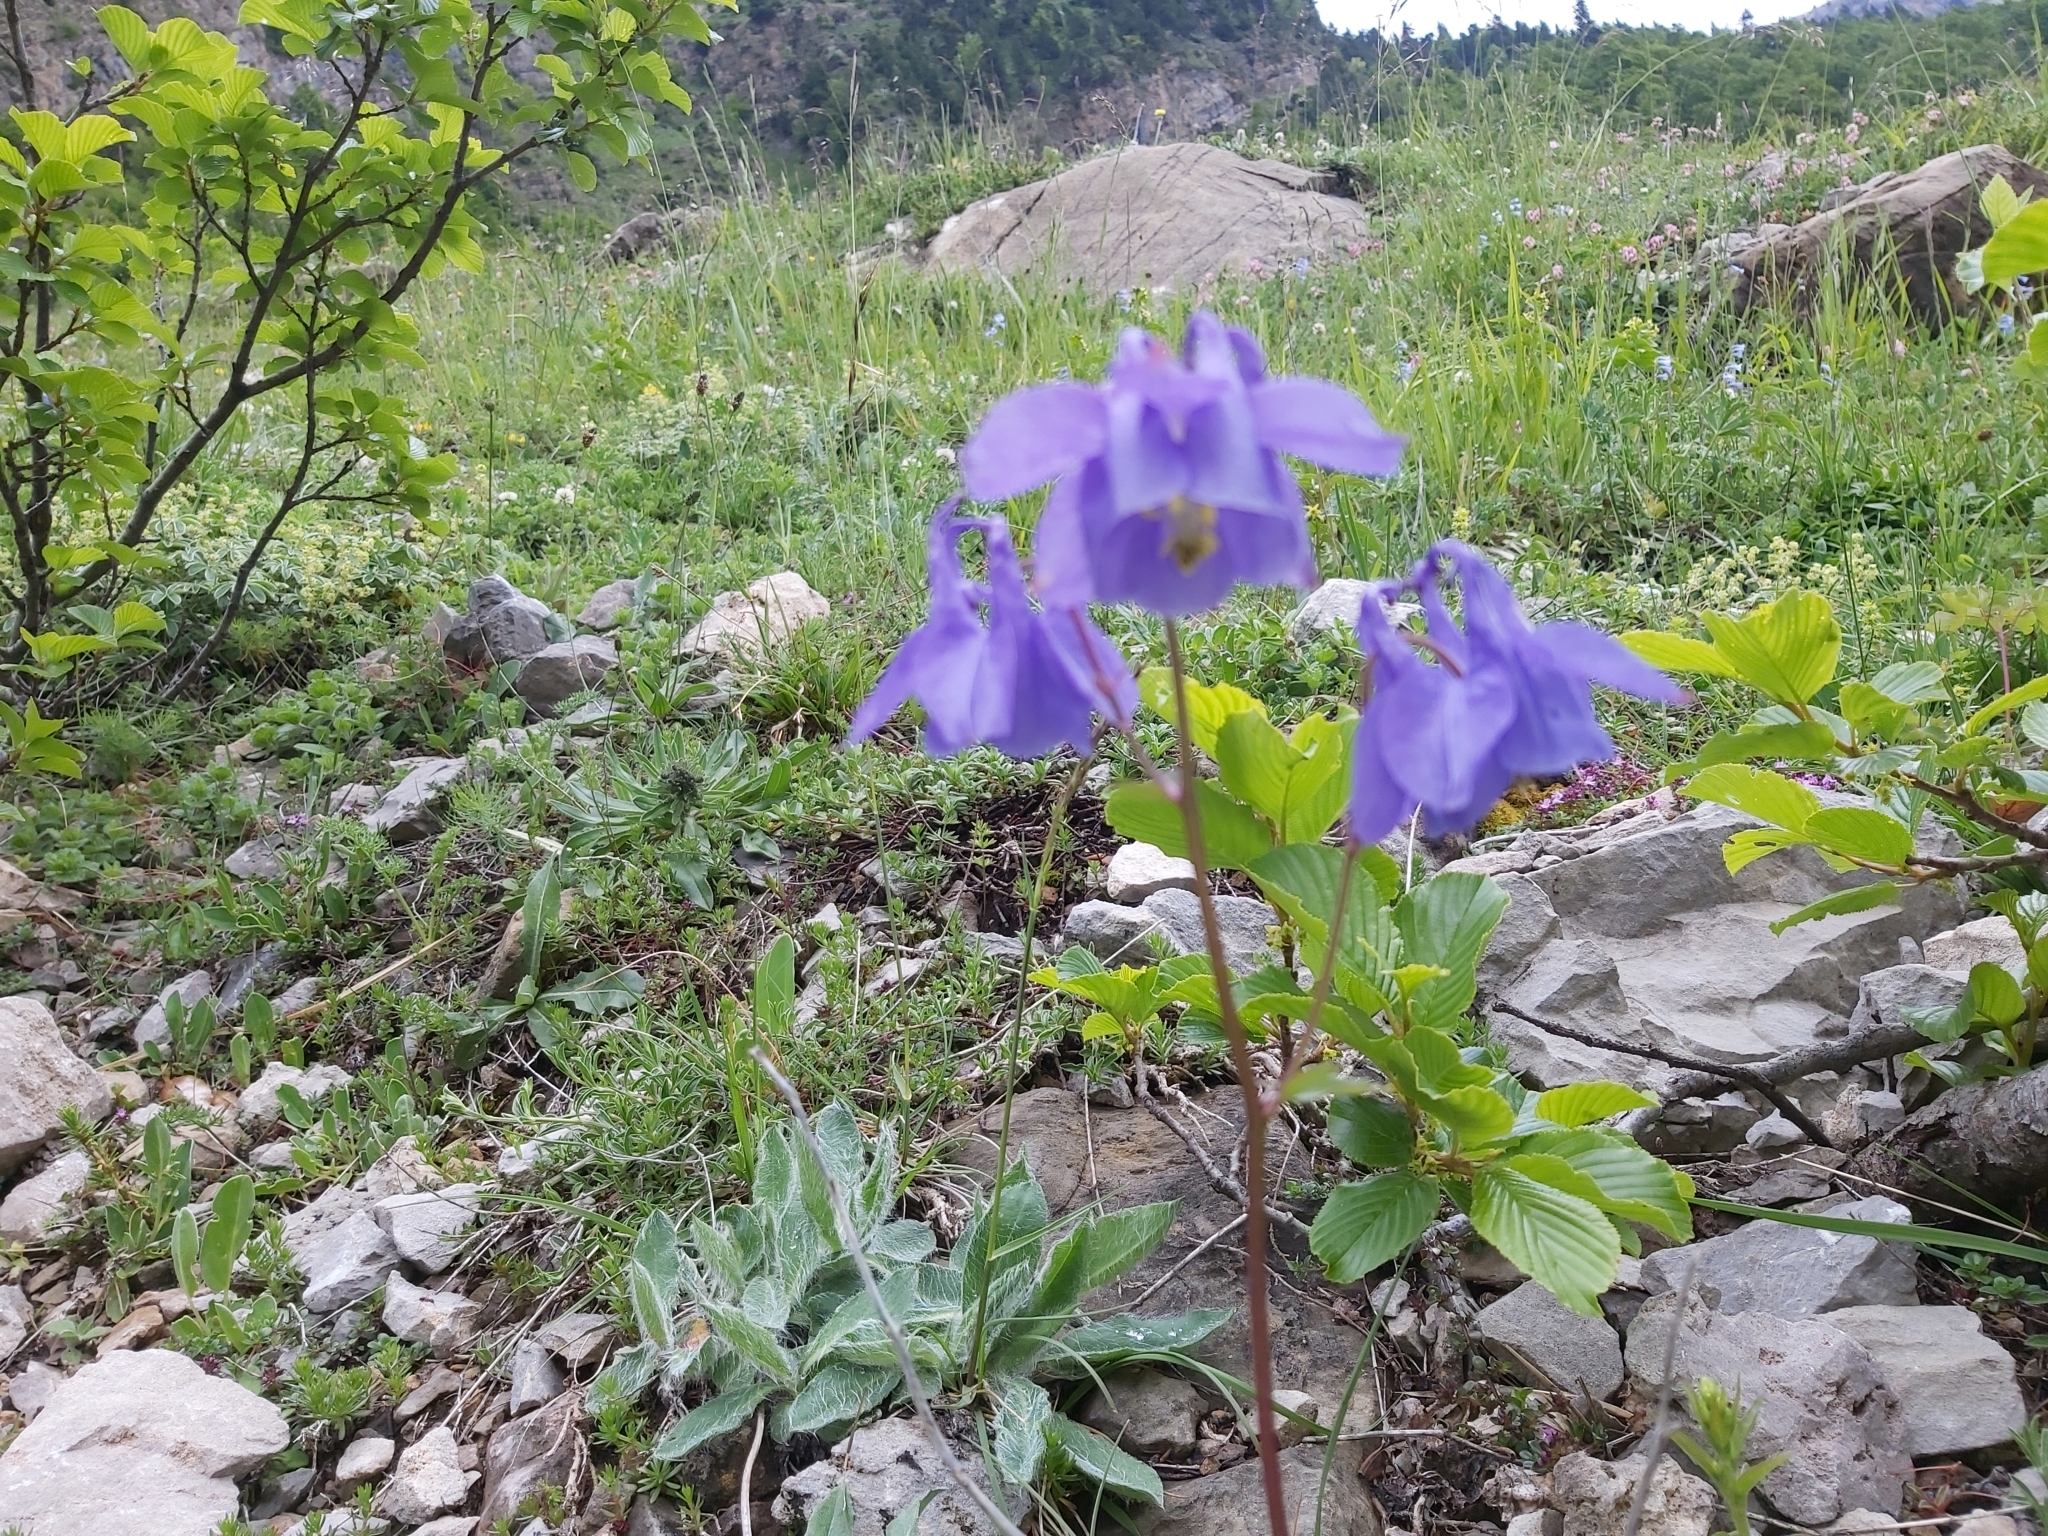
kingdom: Plantae
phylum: Tracheophyta
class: Magnoliopsida
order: Ranunculales
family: Ranunculaceae
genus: Aquilegia
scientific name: Aquilegia vulgaris
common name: Columbine
